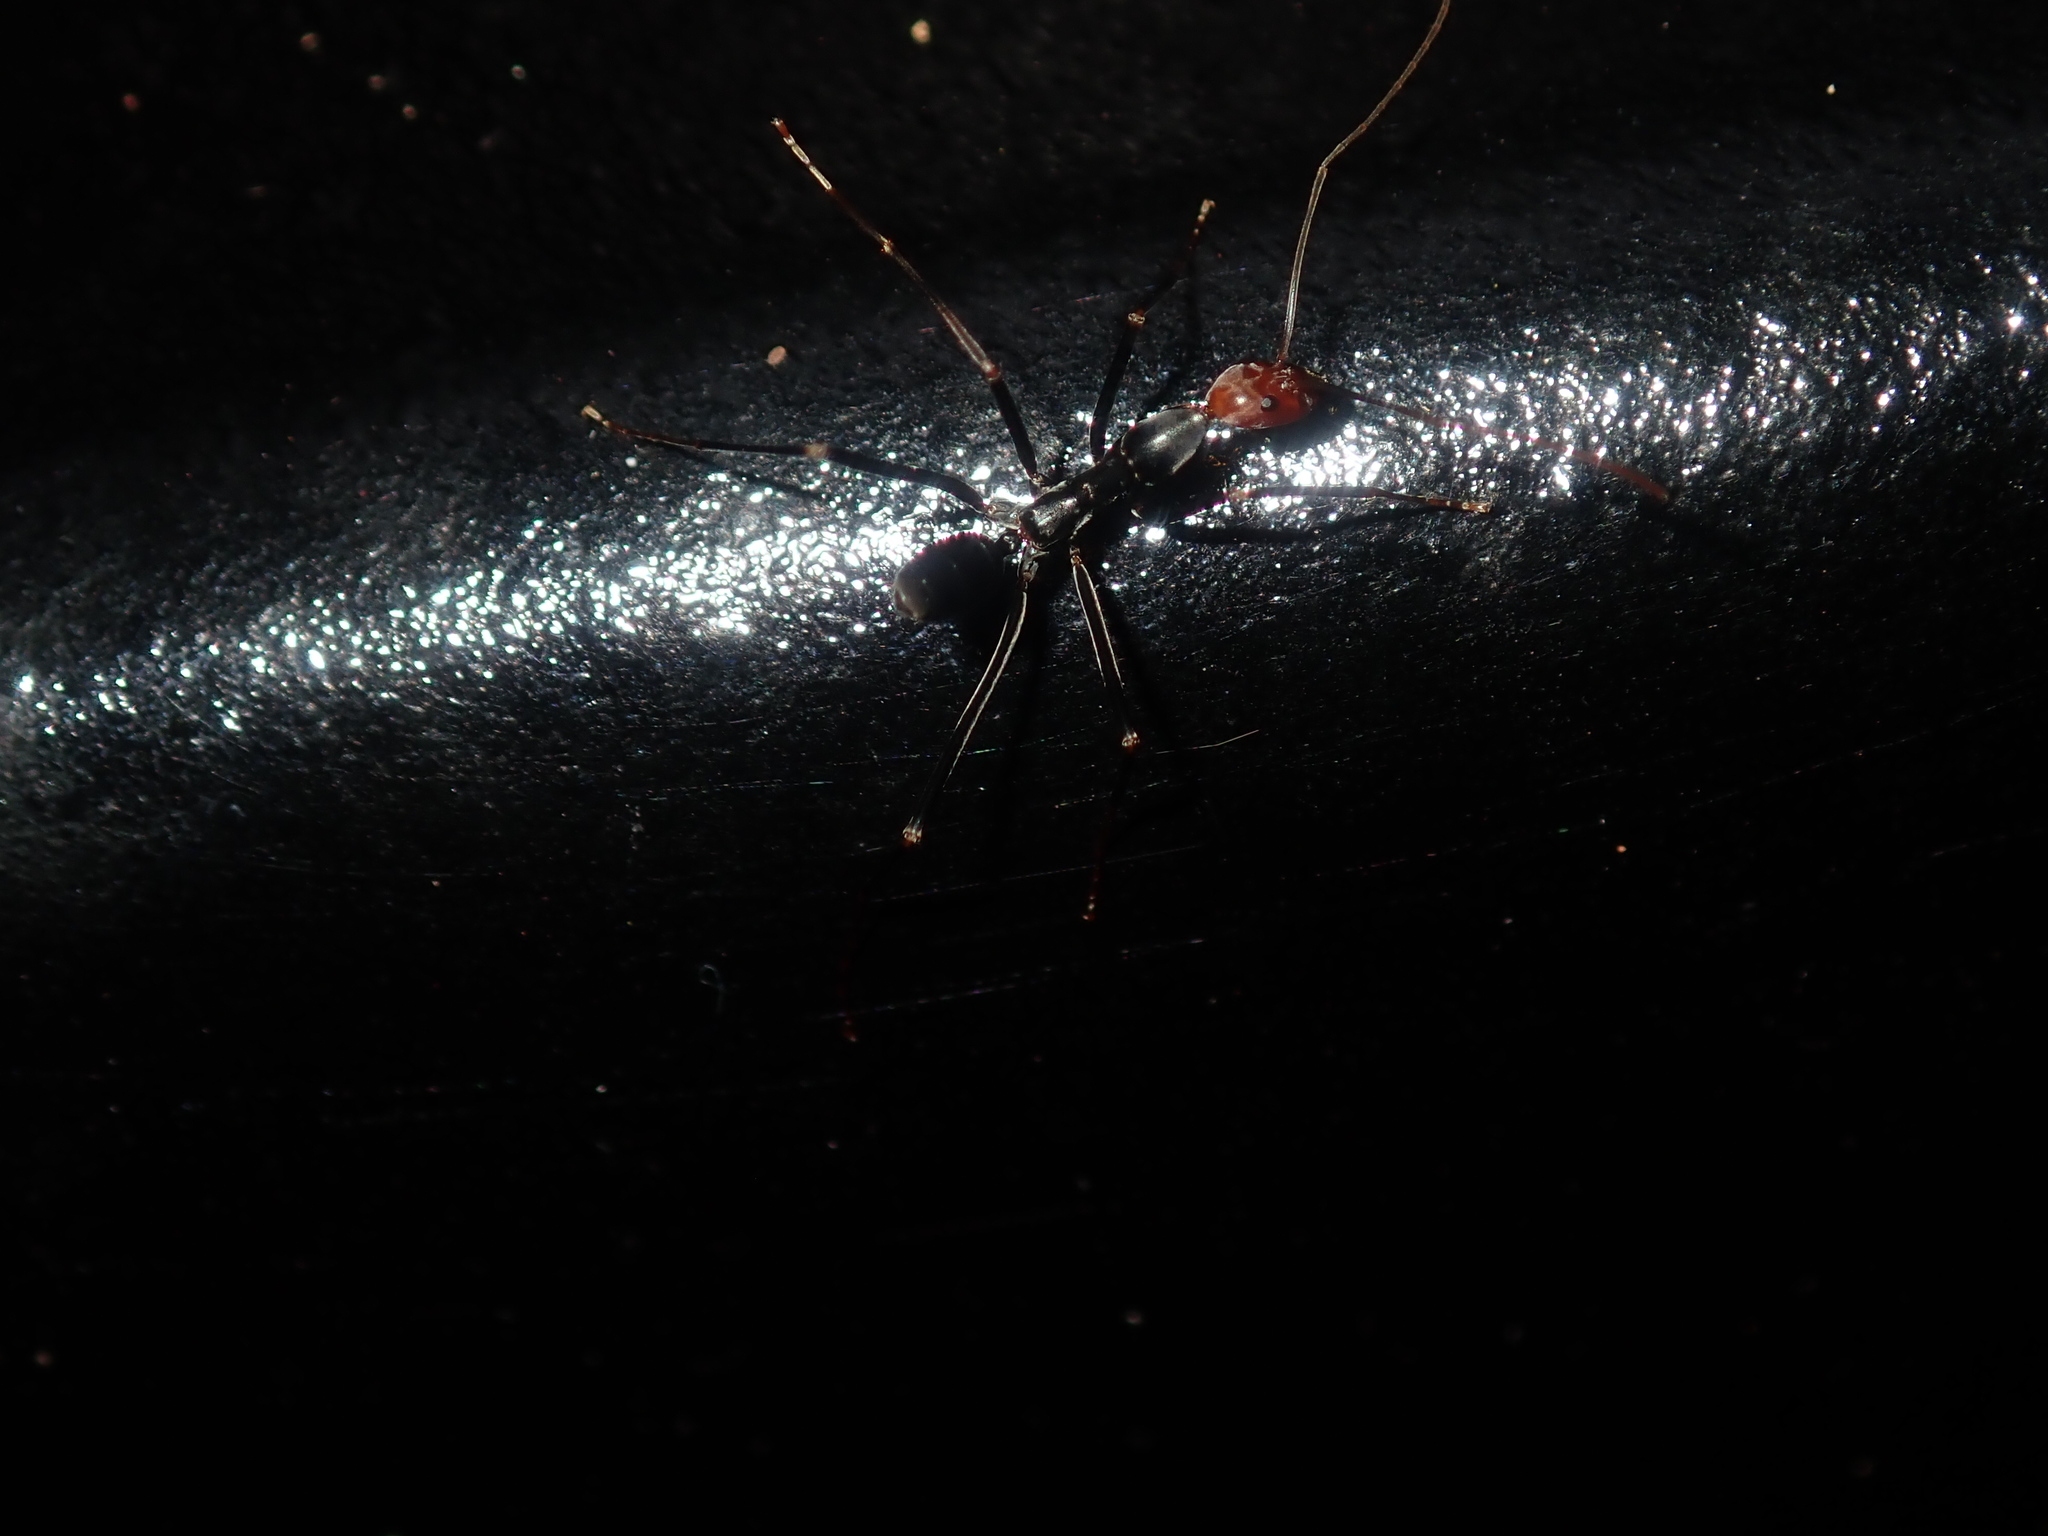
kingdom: Animalia
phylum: Arthropoda
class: Insecta
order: Hymenoptera
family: Formicidae
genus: Leptomyrmex
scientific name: Leptomyrmex erythrocephalus
